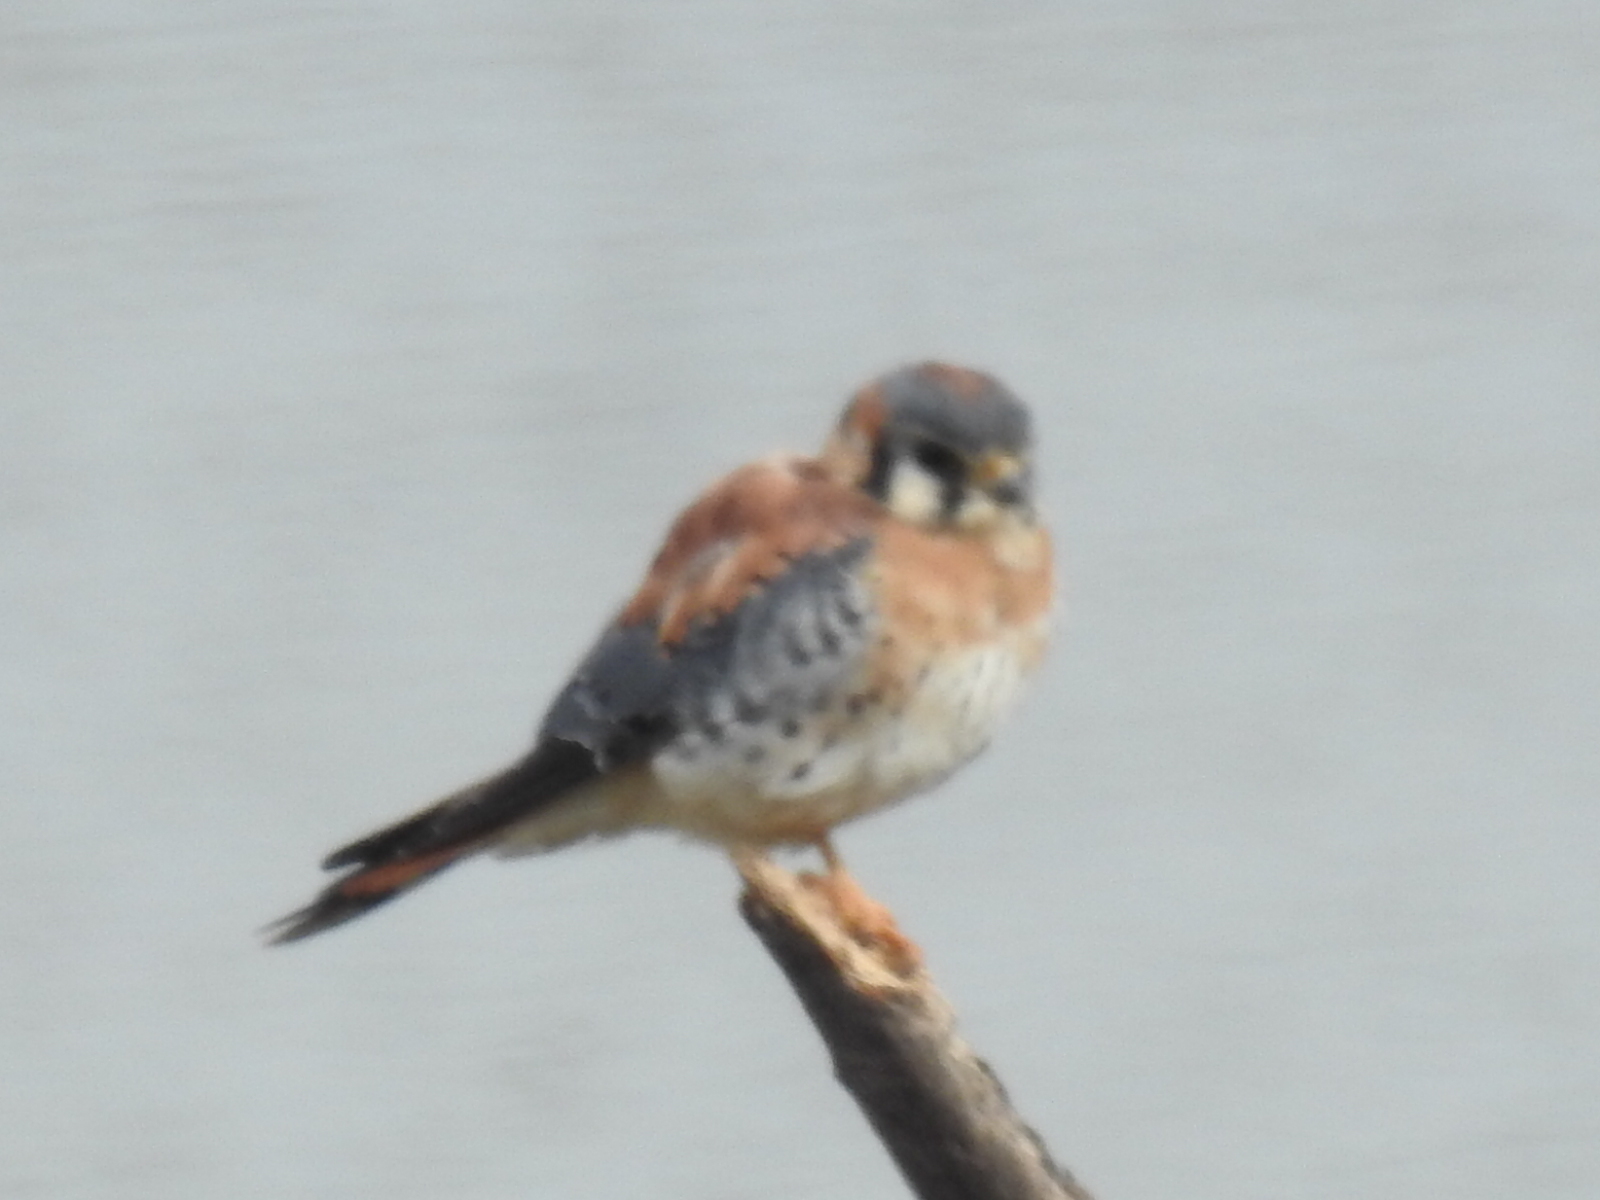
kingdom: Animalia
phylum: Chordata
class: Aves
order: Falconiformes
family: Falconidae
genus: Falco
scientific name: Falco sparverius
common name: American kestrel
